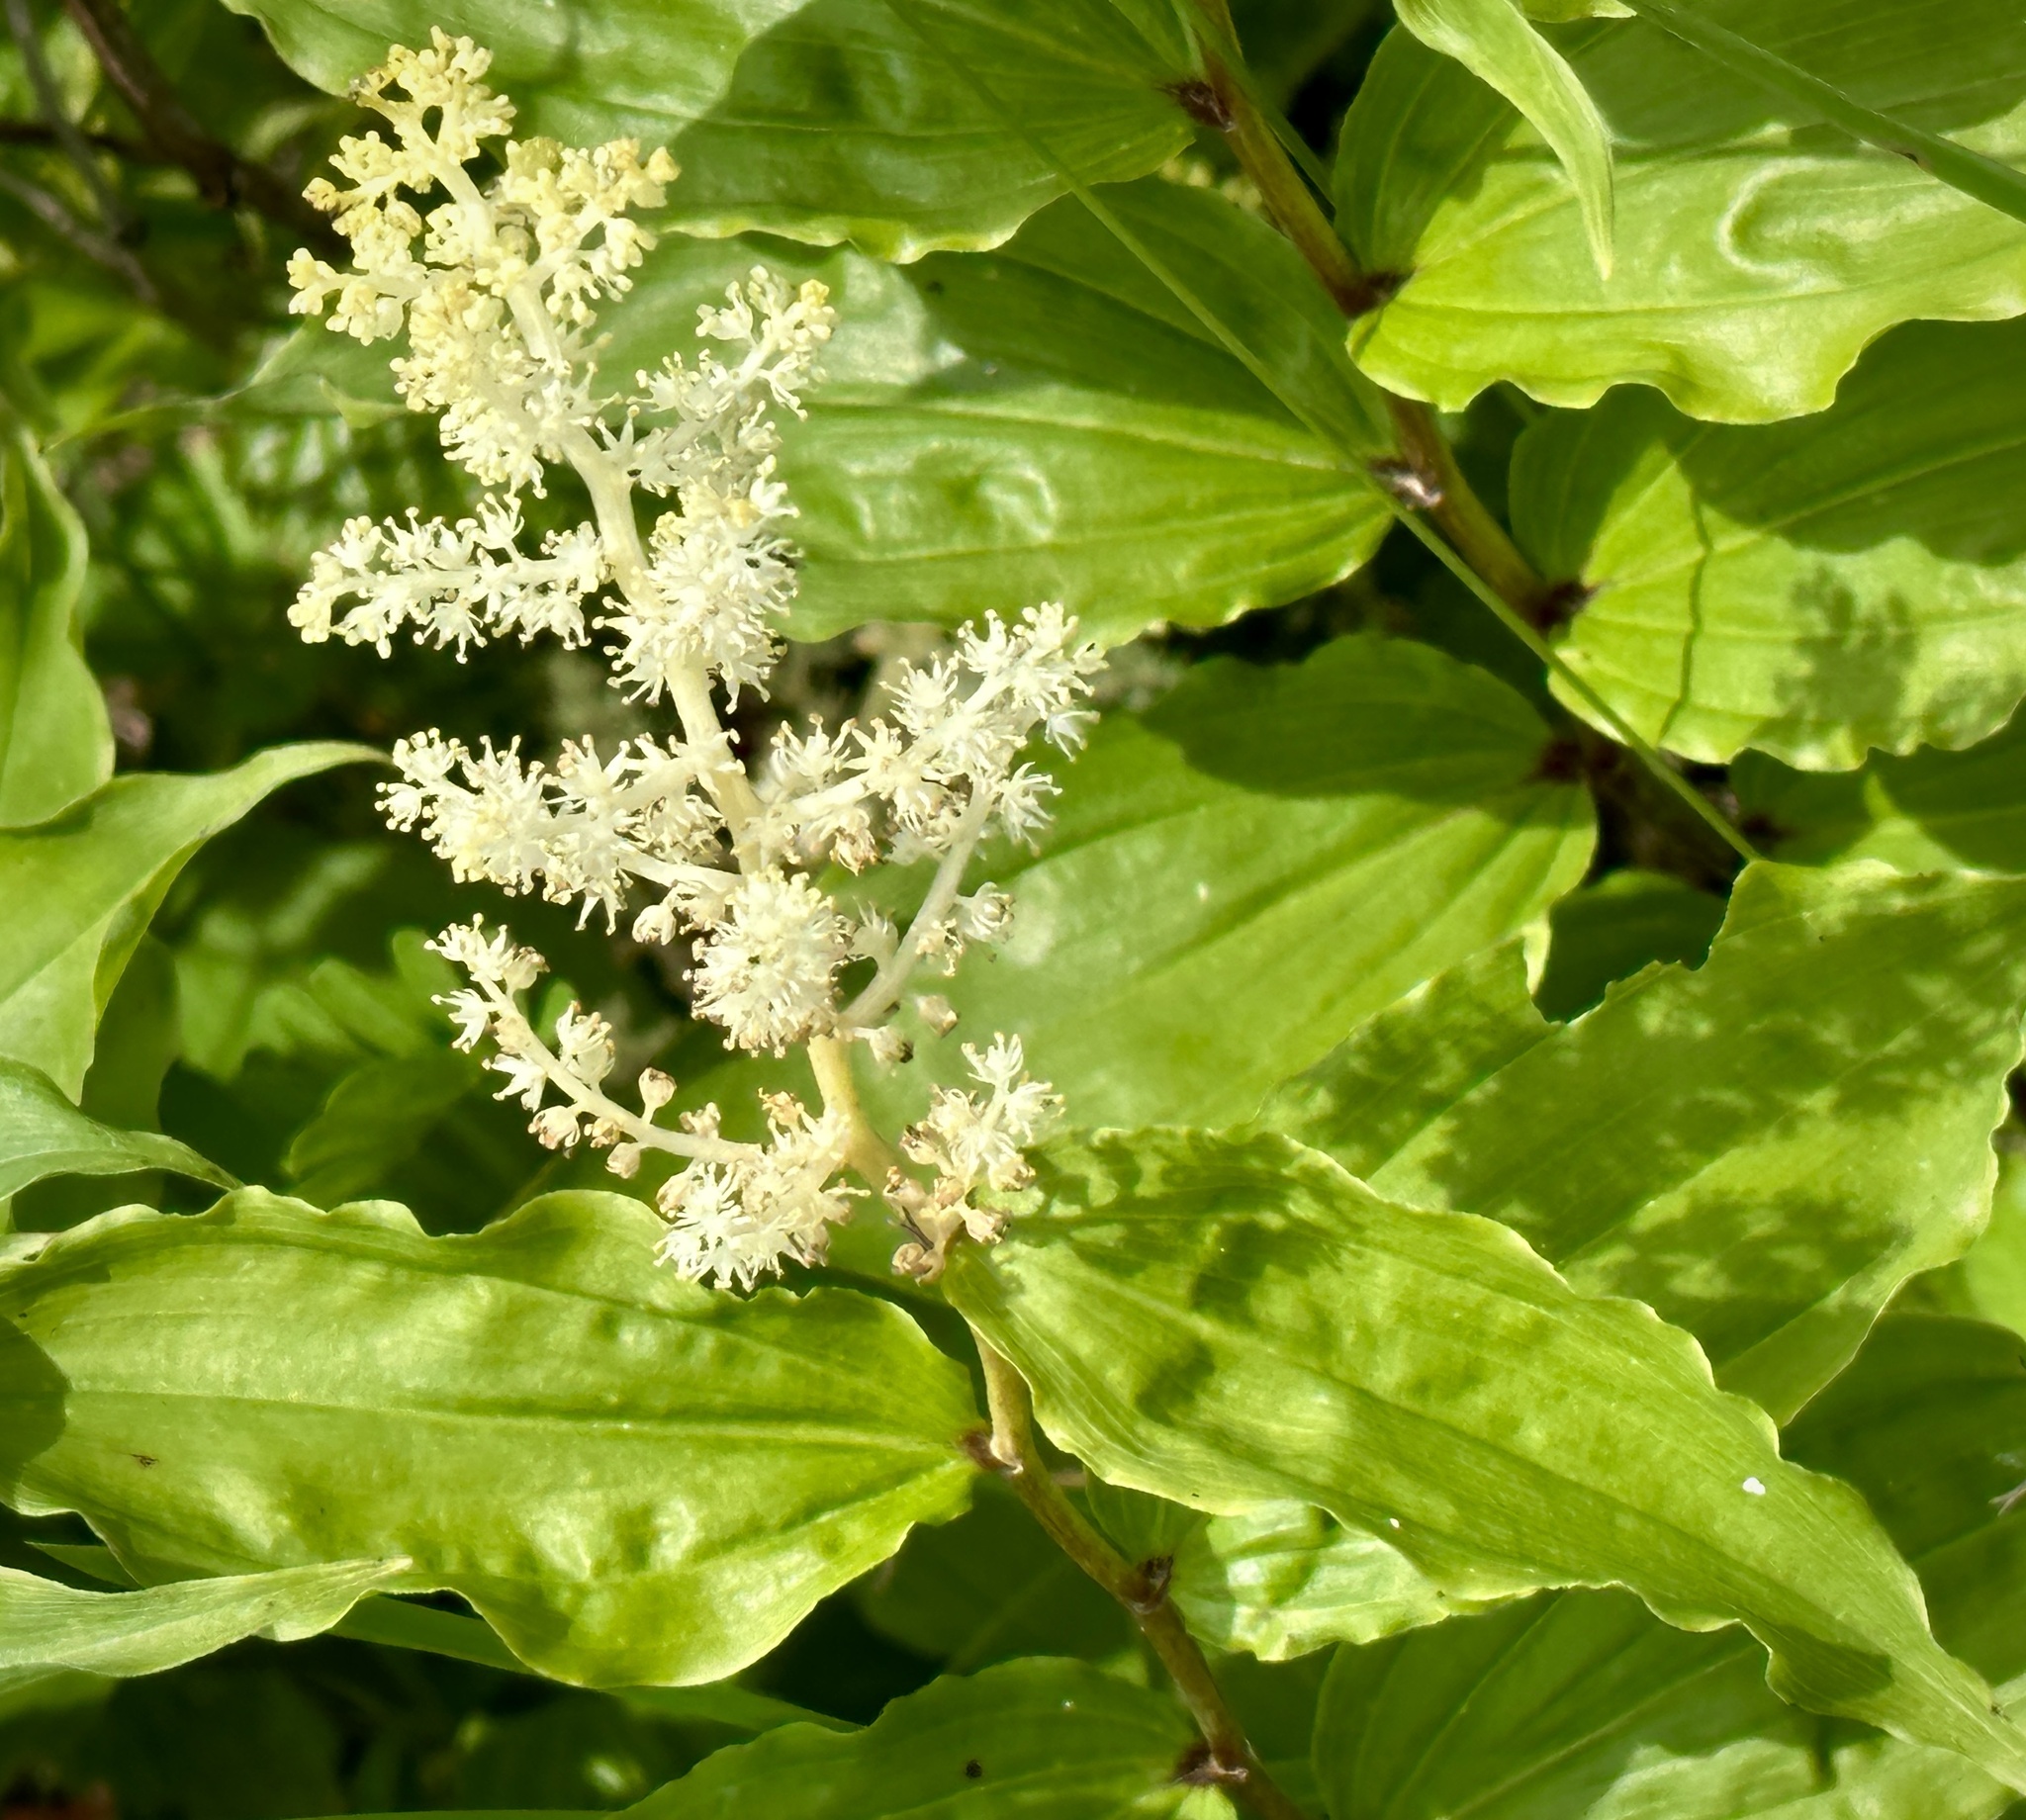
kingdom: Plantae
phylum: Tracheophyta
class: Liliopsida
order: Asparagales
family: Asparagaceae
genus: Maianthemum
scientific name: Maianthemum racemosum
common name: False spikenard
